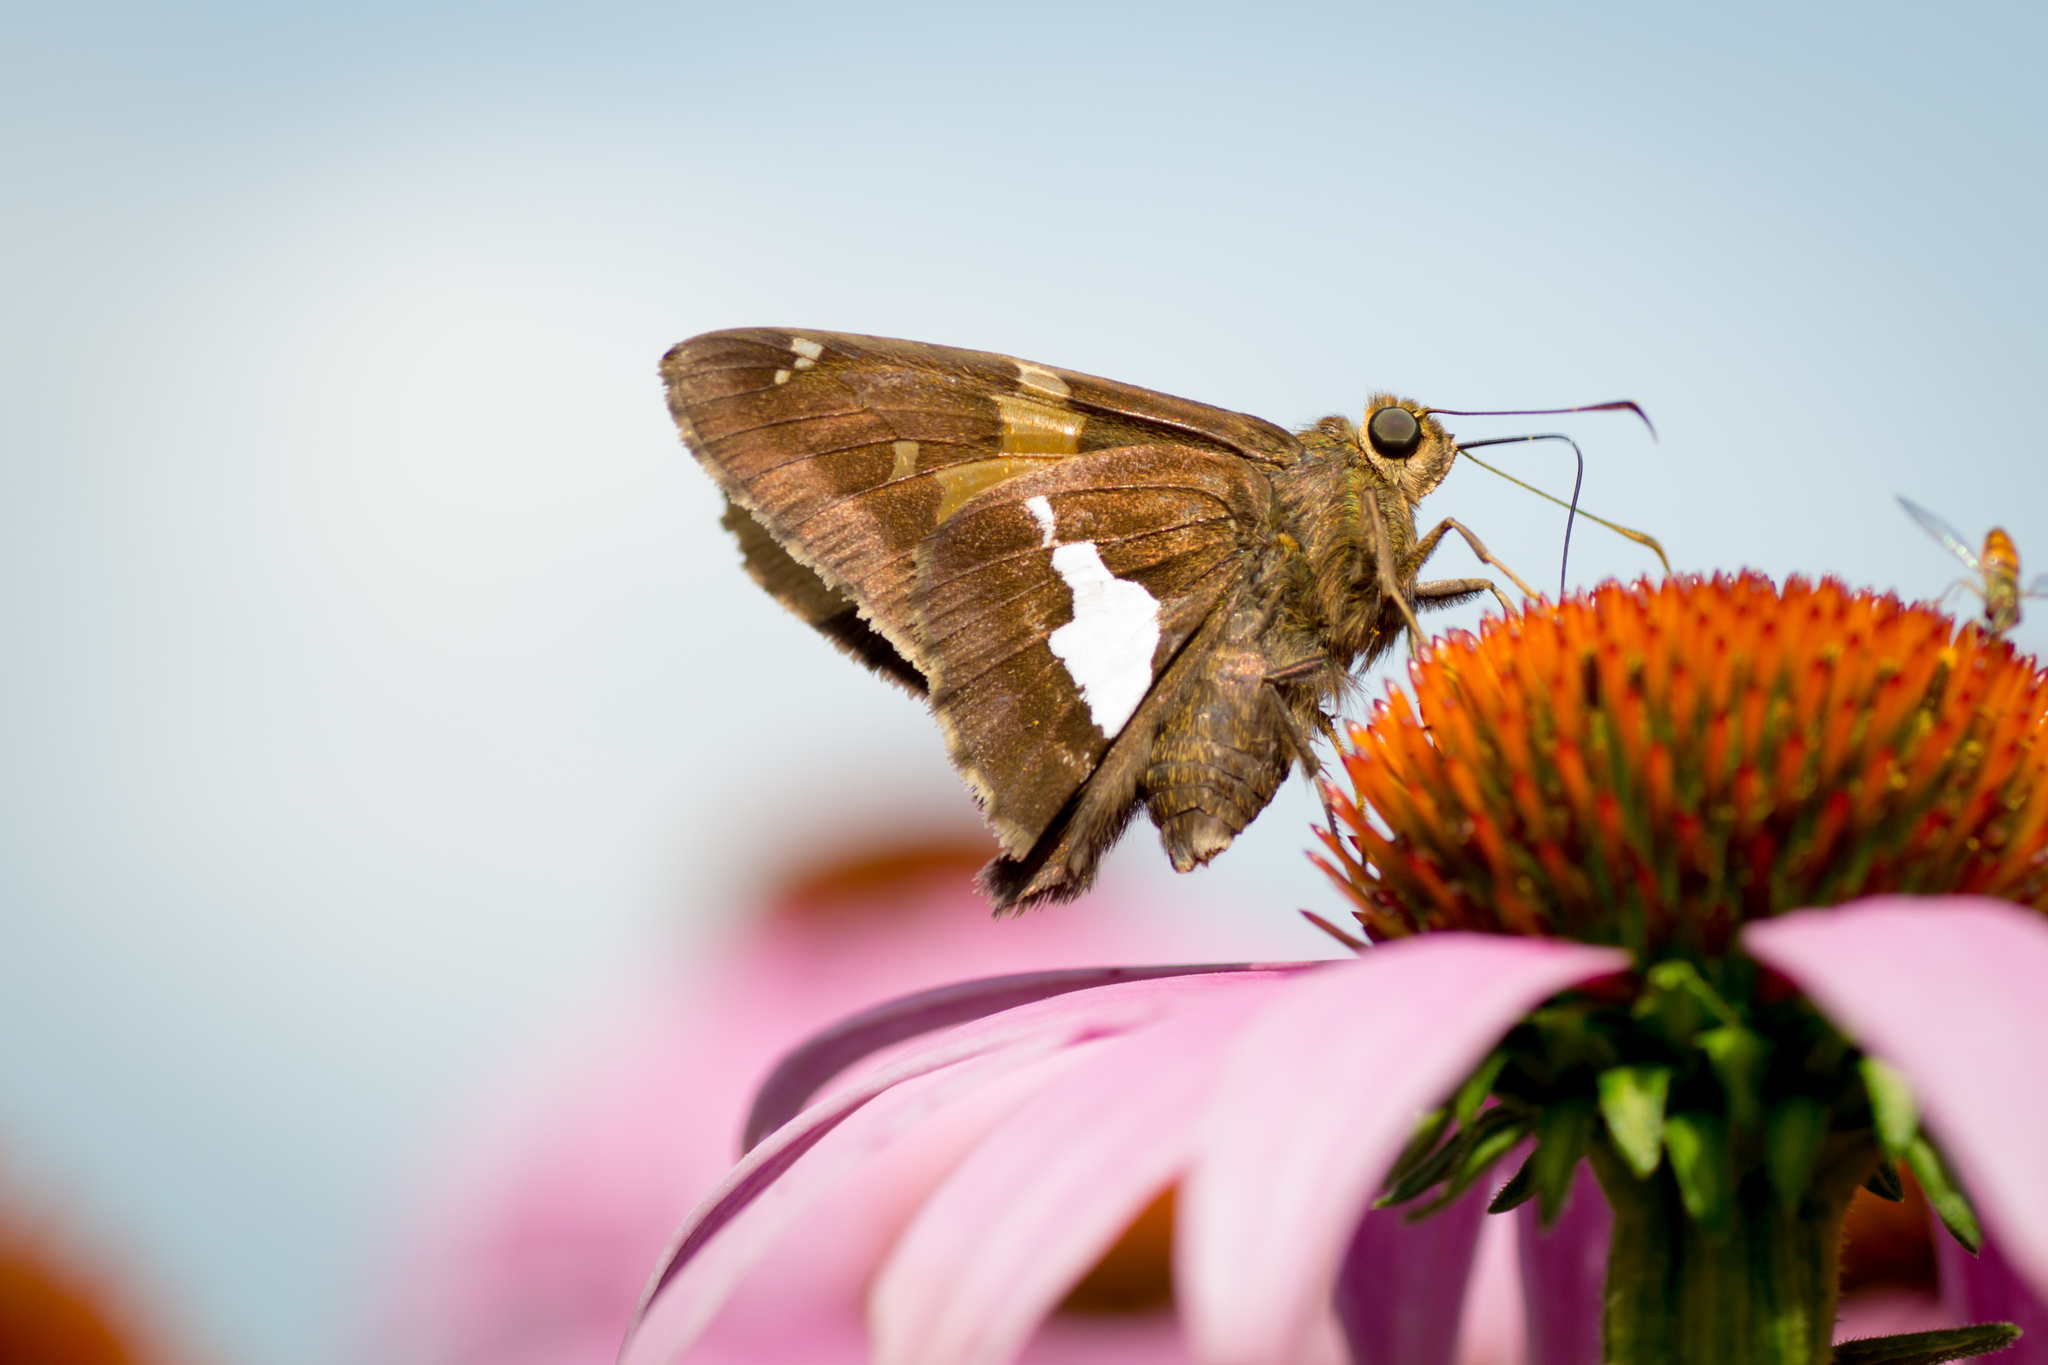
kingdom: Animalia
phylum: Arthropoda
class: Insecta
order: Lepidoptera
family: Hesperiidae
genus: Epargyreus
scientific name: Epargyreus clarus
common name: Silver-spotted skipper
